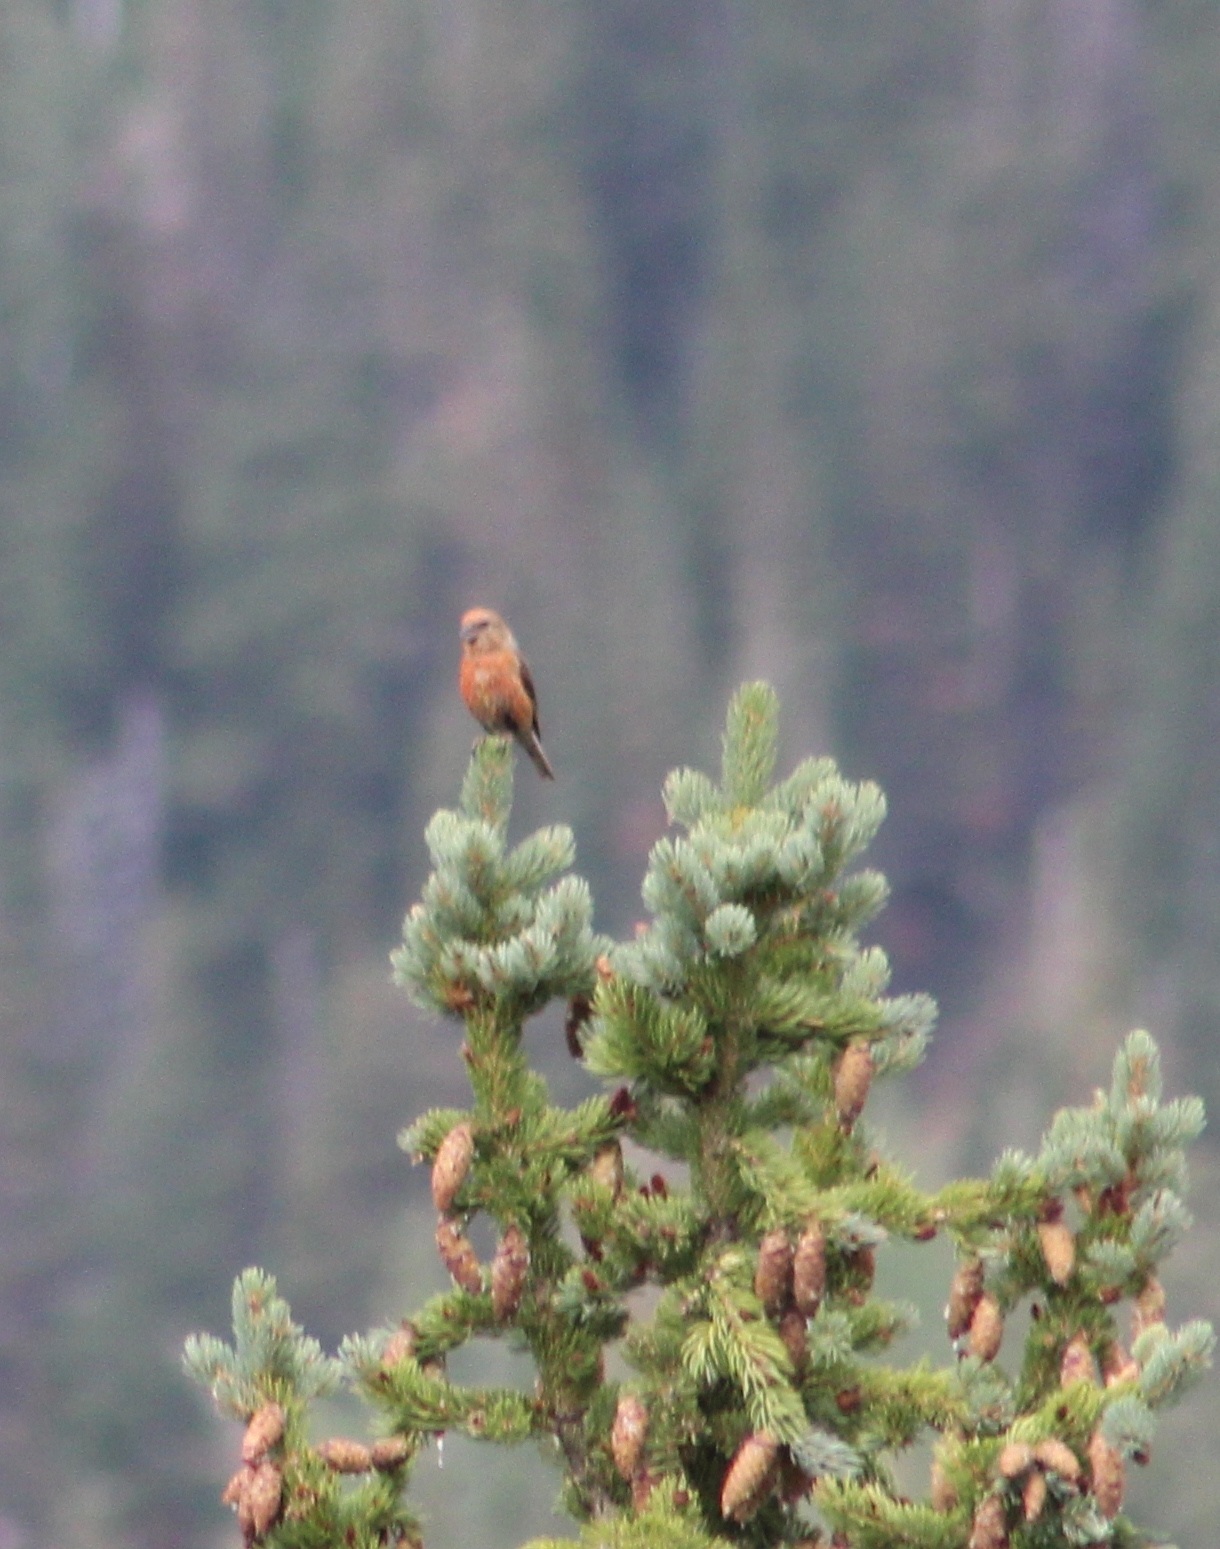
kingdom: Animalia
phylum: Chordata
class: Aves
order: Passeriformes
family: Fringillidae
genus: Loxia
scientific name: Loxia curvirostra
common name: Red crossbill
